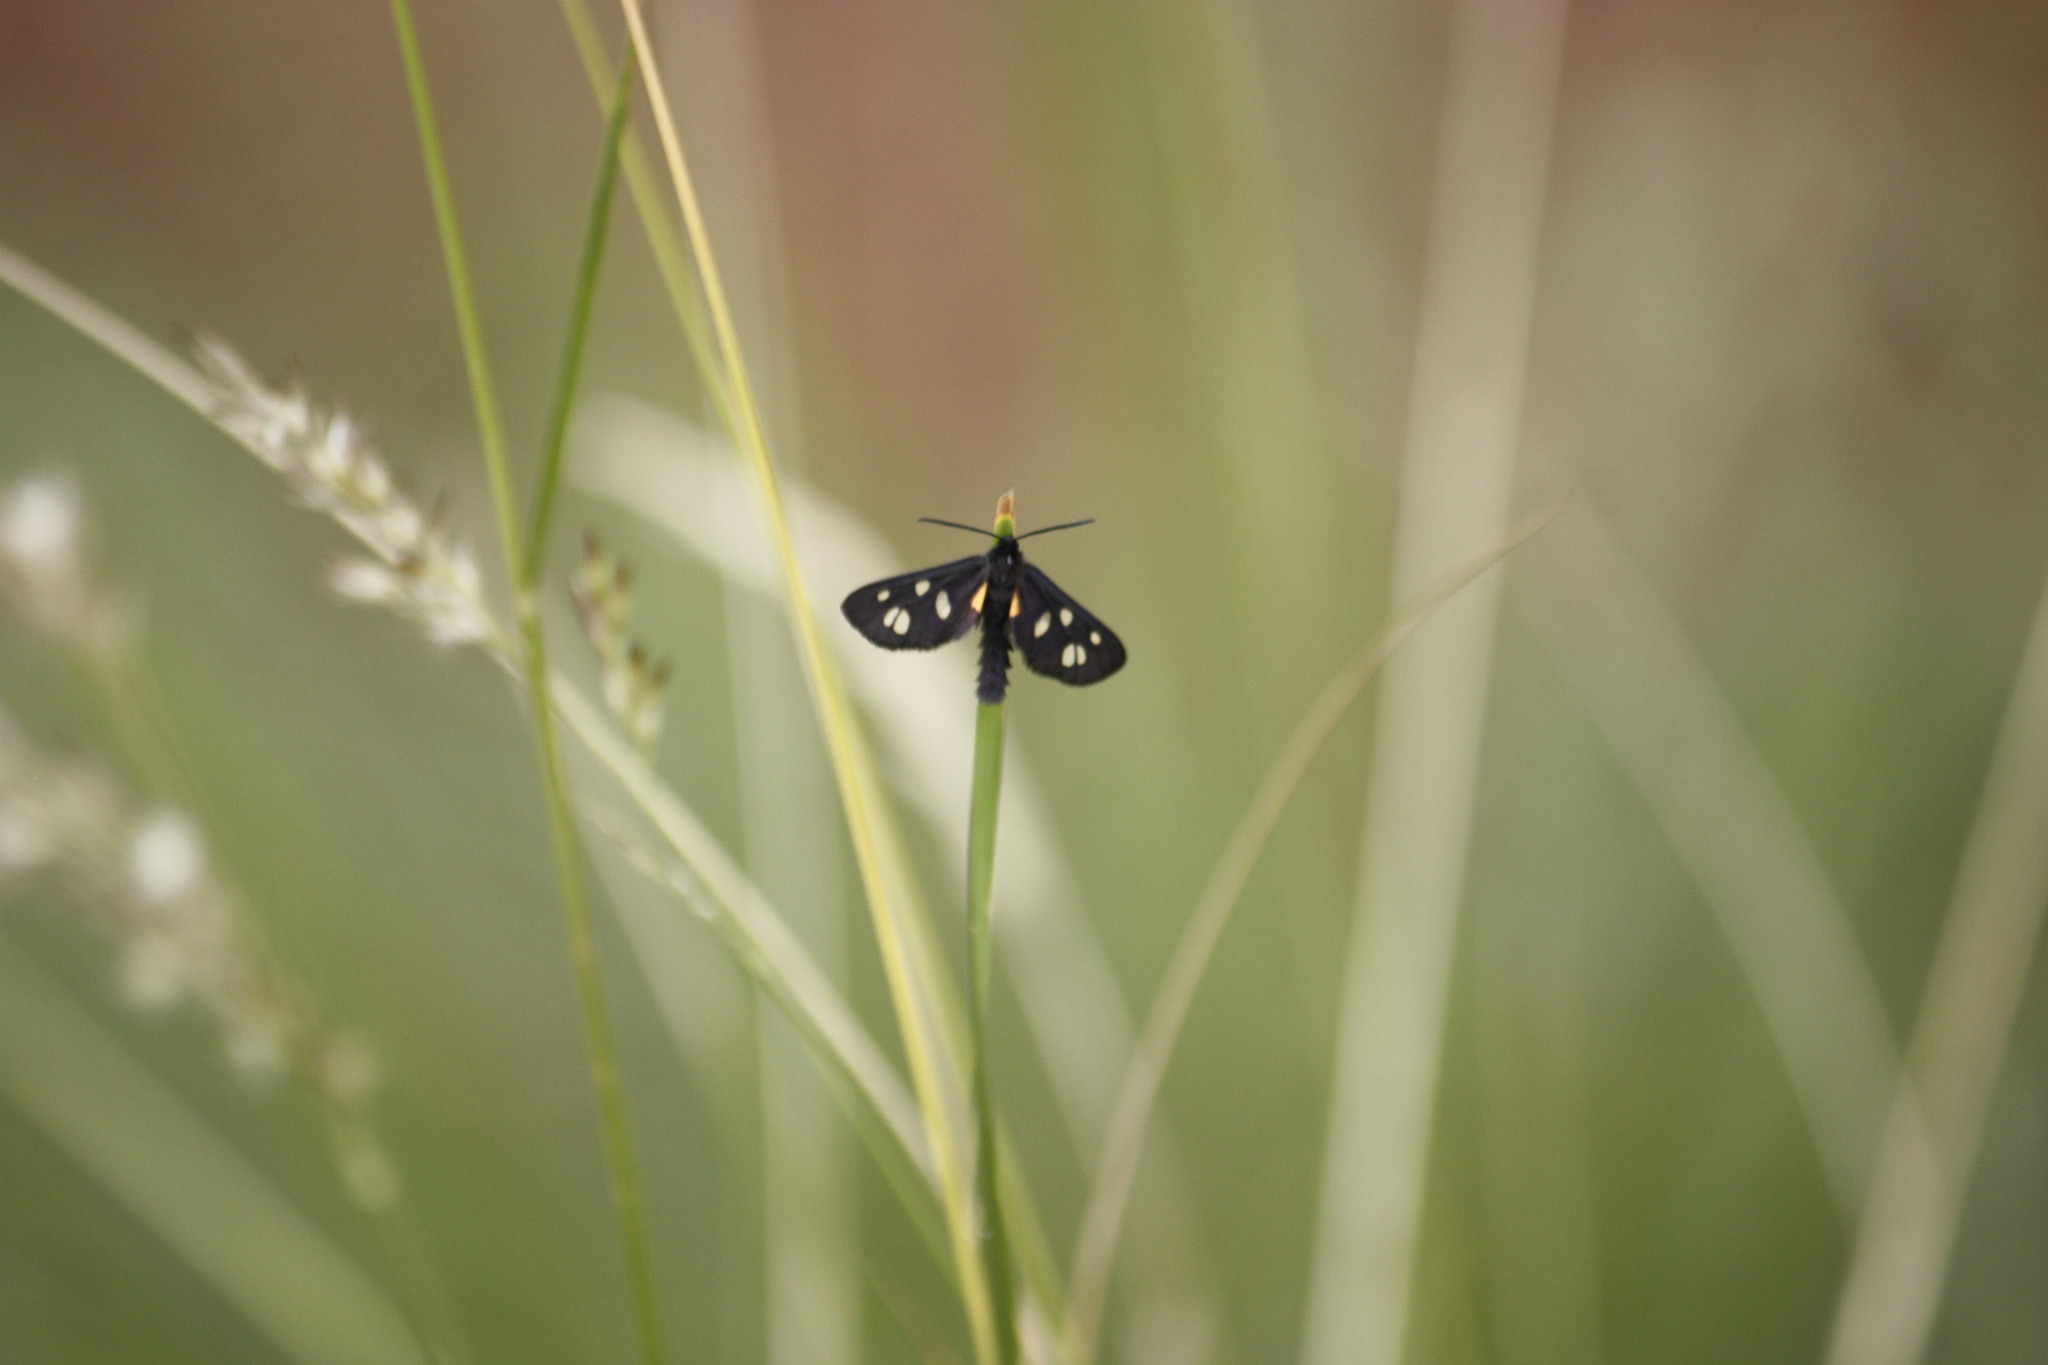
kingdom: Animalia
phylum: Arthropoda
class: Insecta
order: Lepidoptera
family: Erebidae
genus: Amata
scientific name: Amata Asinusca atricornis
